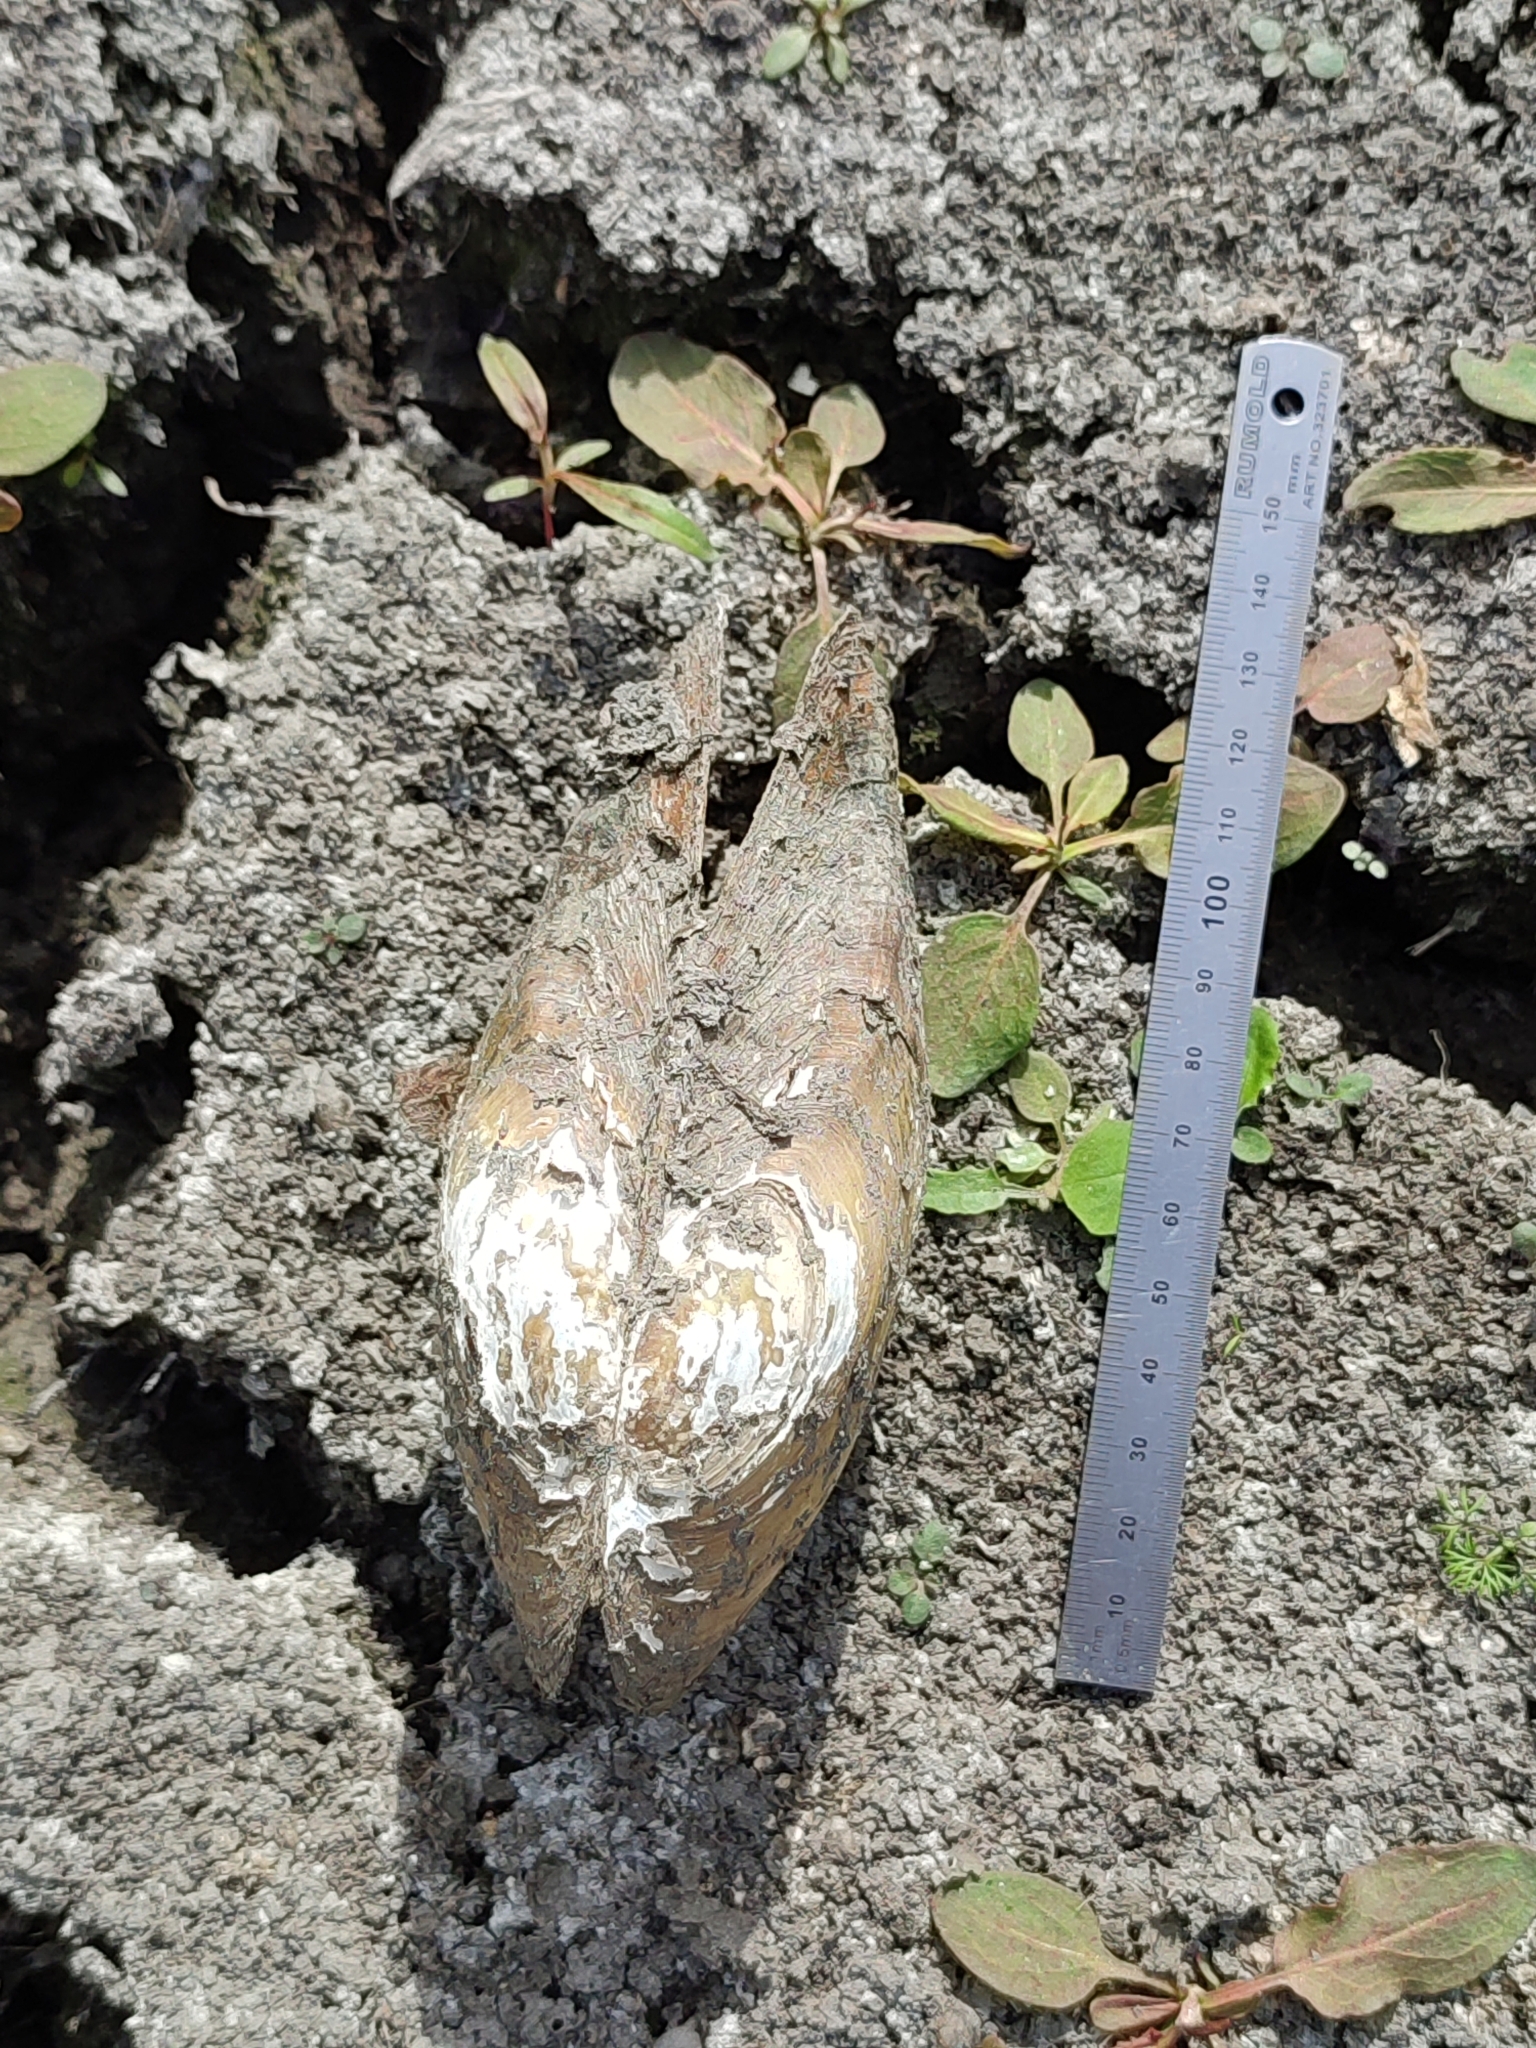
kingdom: Animalia
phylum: Mollusca
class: Bivalvia
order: Unionida
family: Unionidae
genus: Anodonta
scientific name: Anodonta cygnea
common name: Swan mussel
